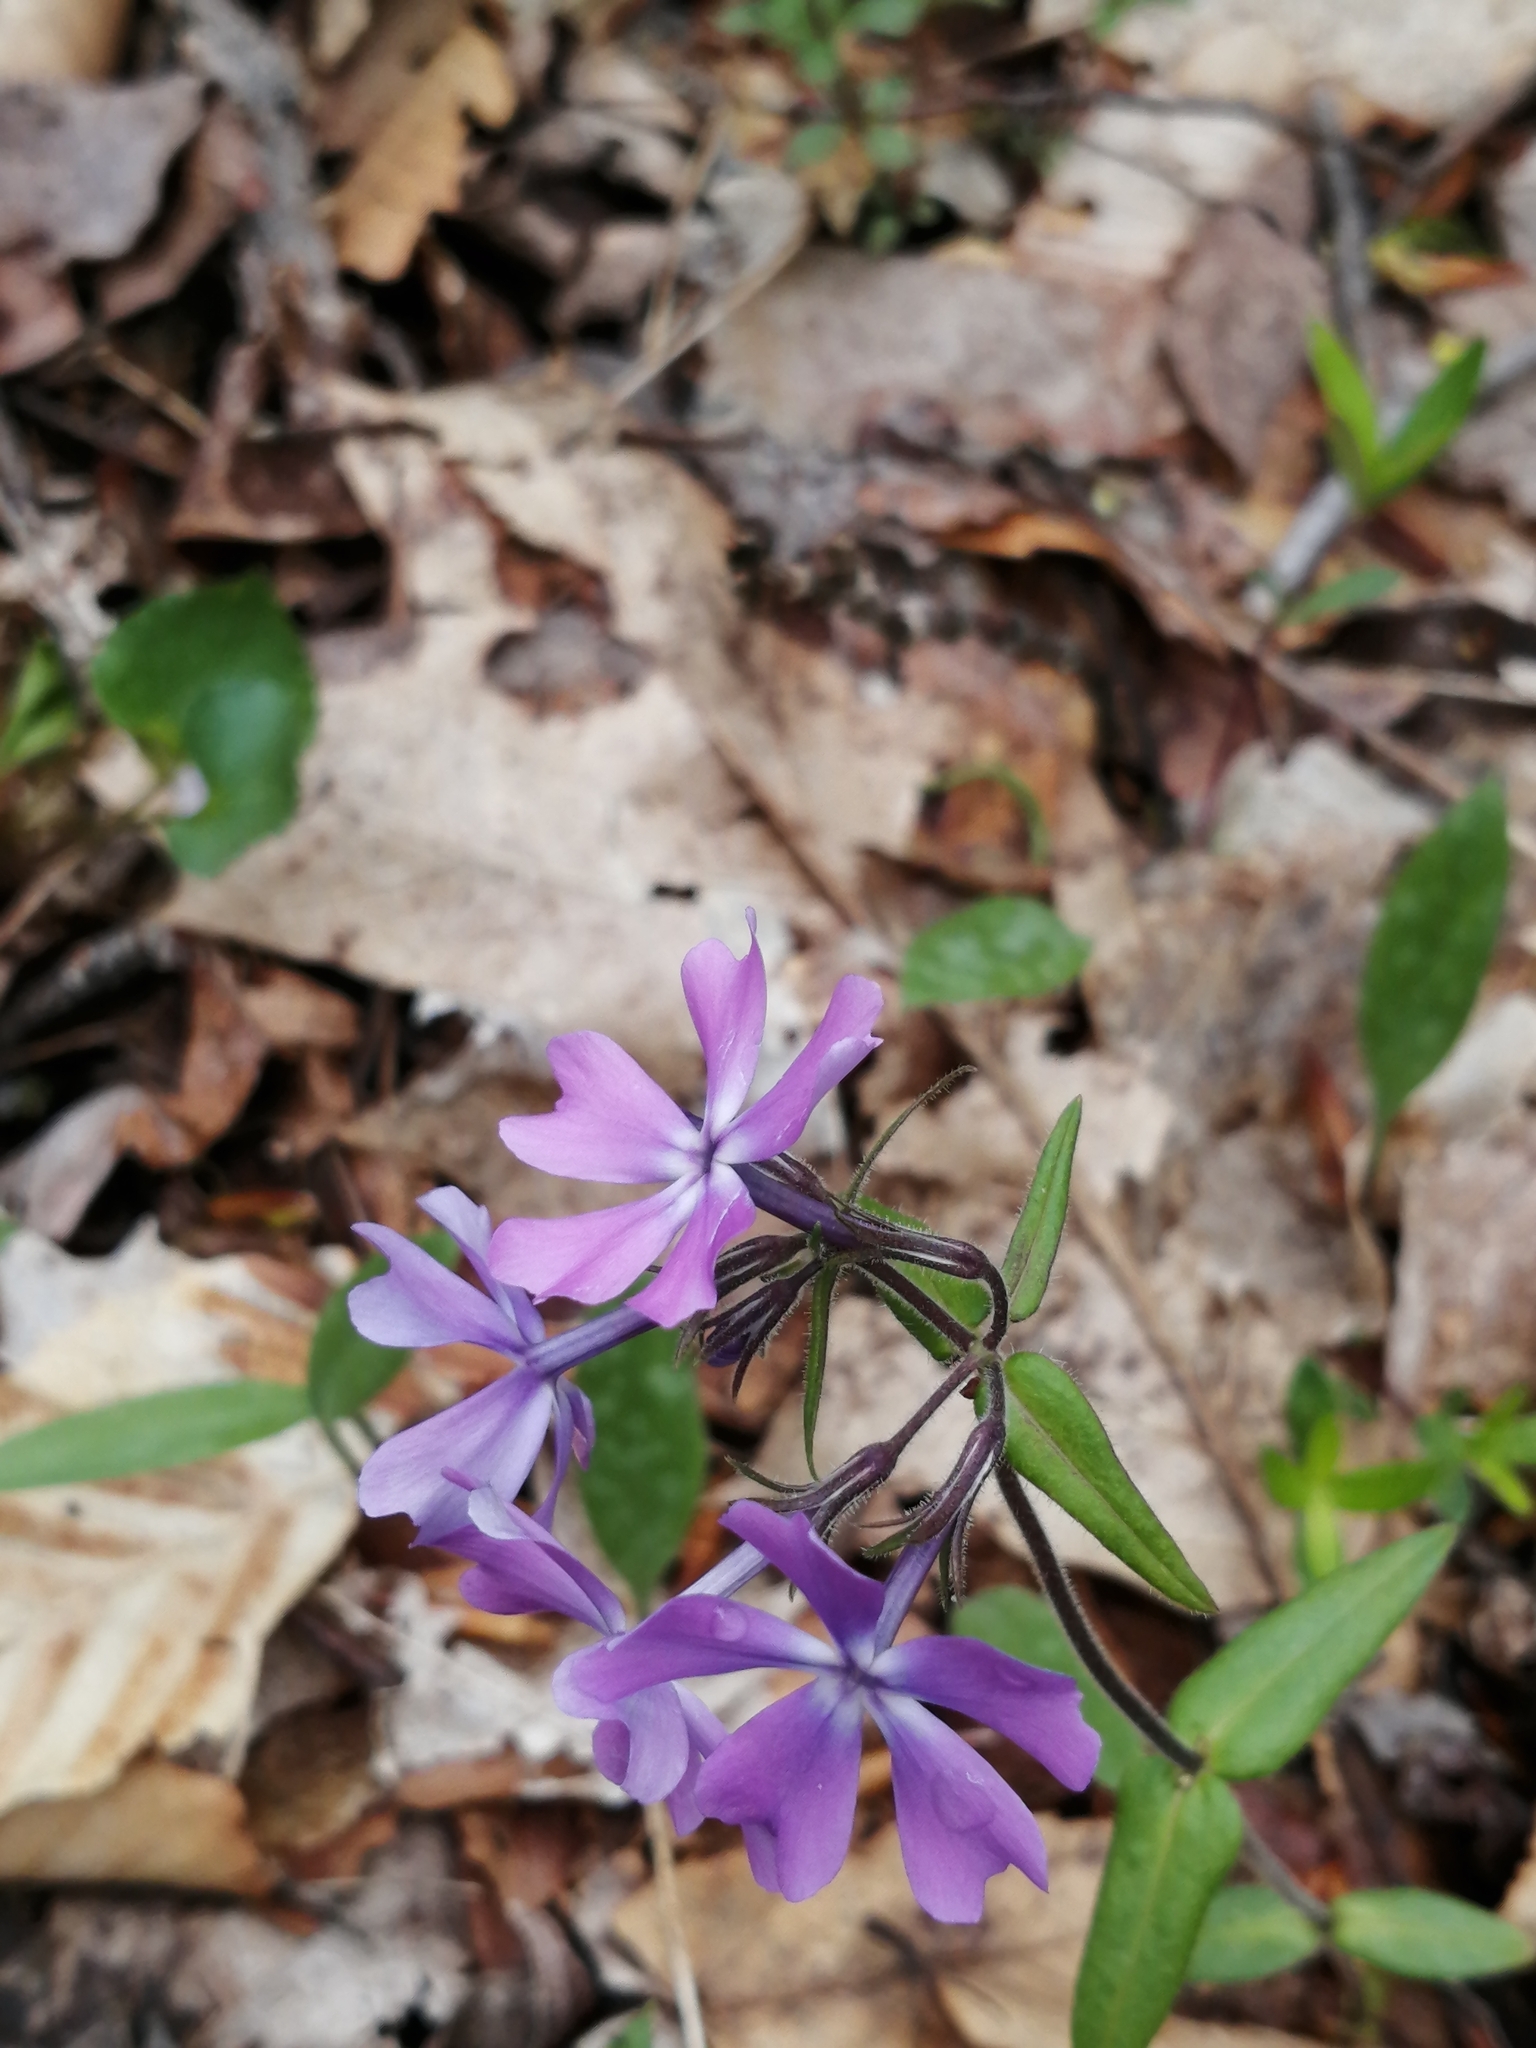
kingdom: Plantae
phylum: Tracheophyta
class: Magnoliopsida
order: Ericales
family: Polemoniaceae
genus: Phlox
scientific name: Phlox divaricata
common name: Blue phlox
